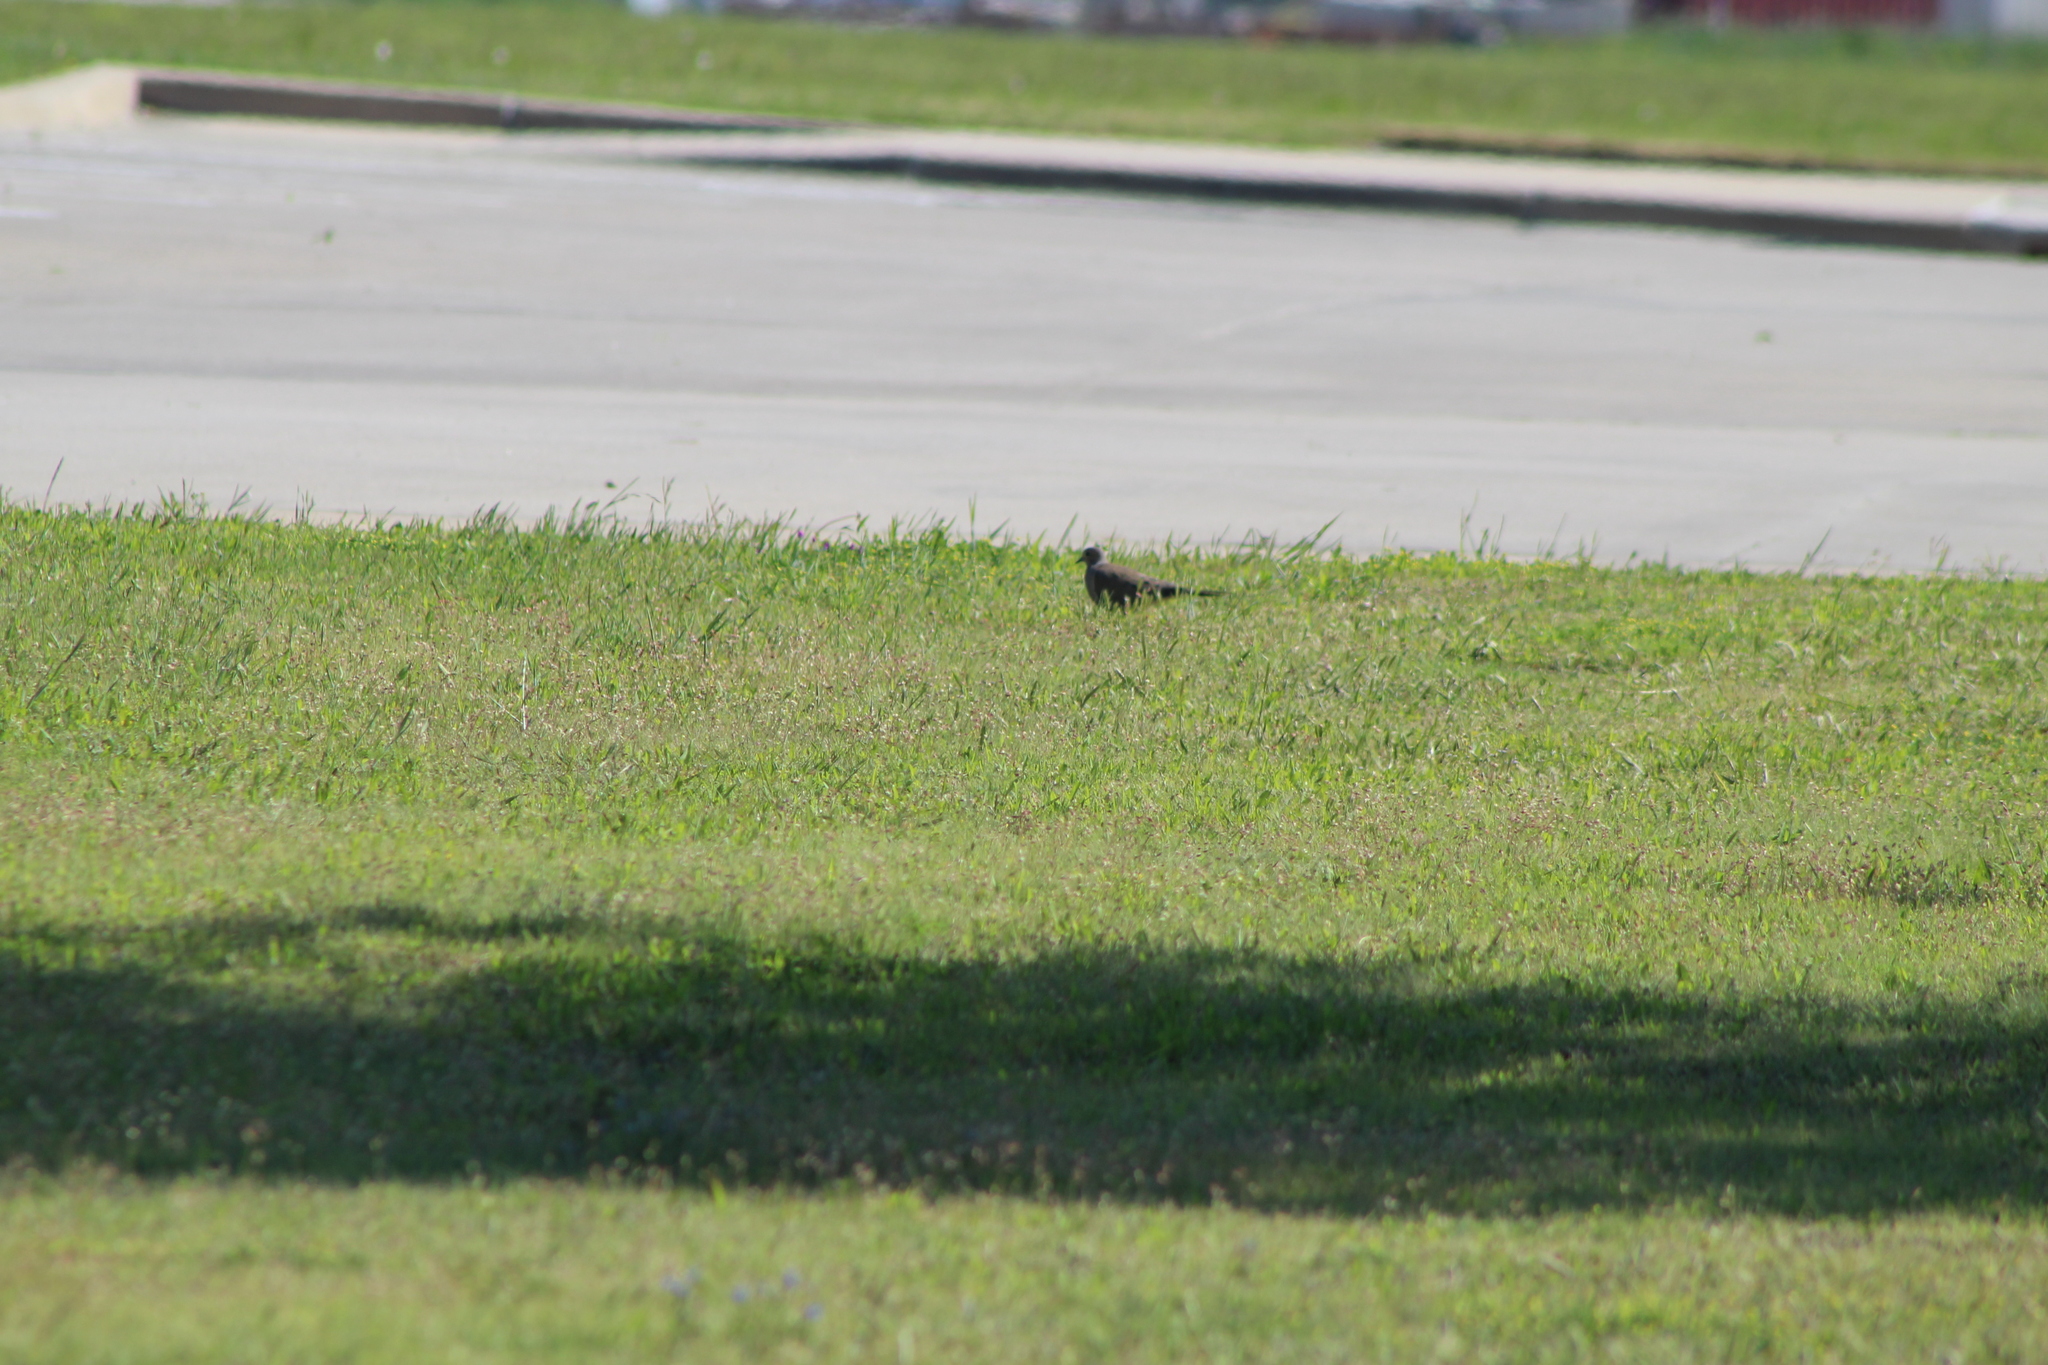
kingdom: Animalia
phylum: Chordata
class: Aves
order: Columbiformes
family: Columbidae
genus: Zenaida
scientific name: Zenaida macroura
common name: Mourning dove
